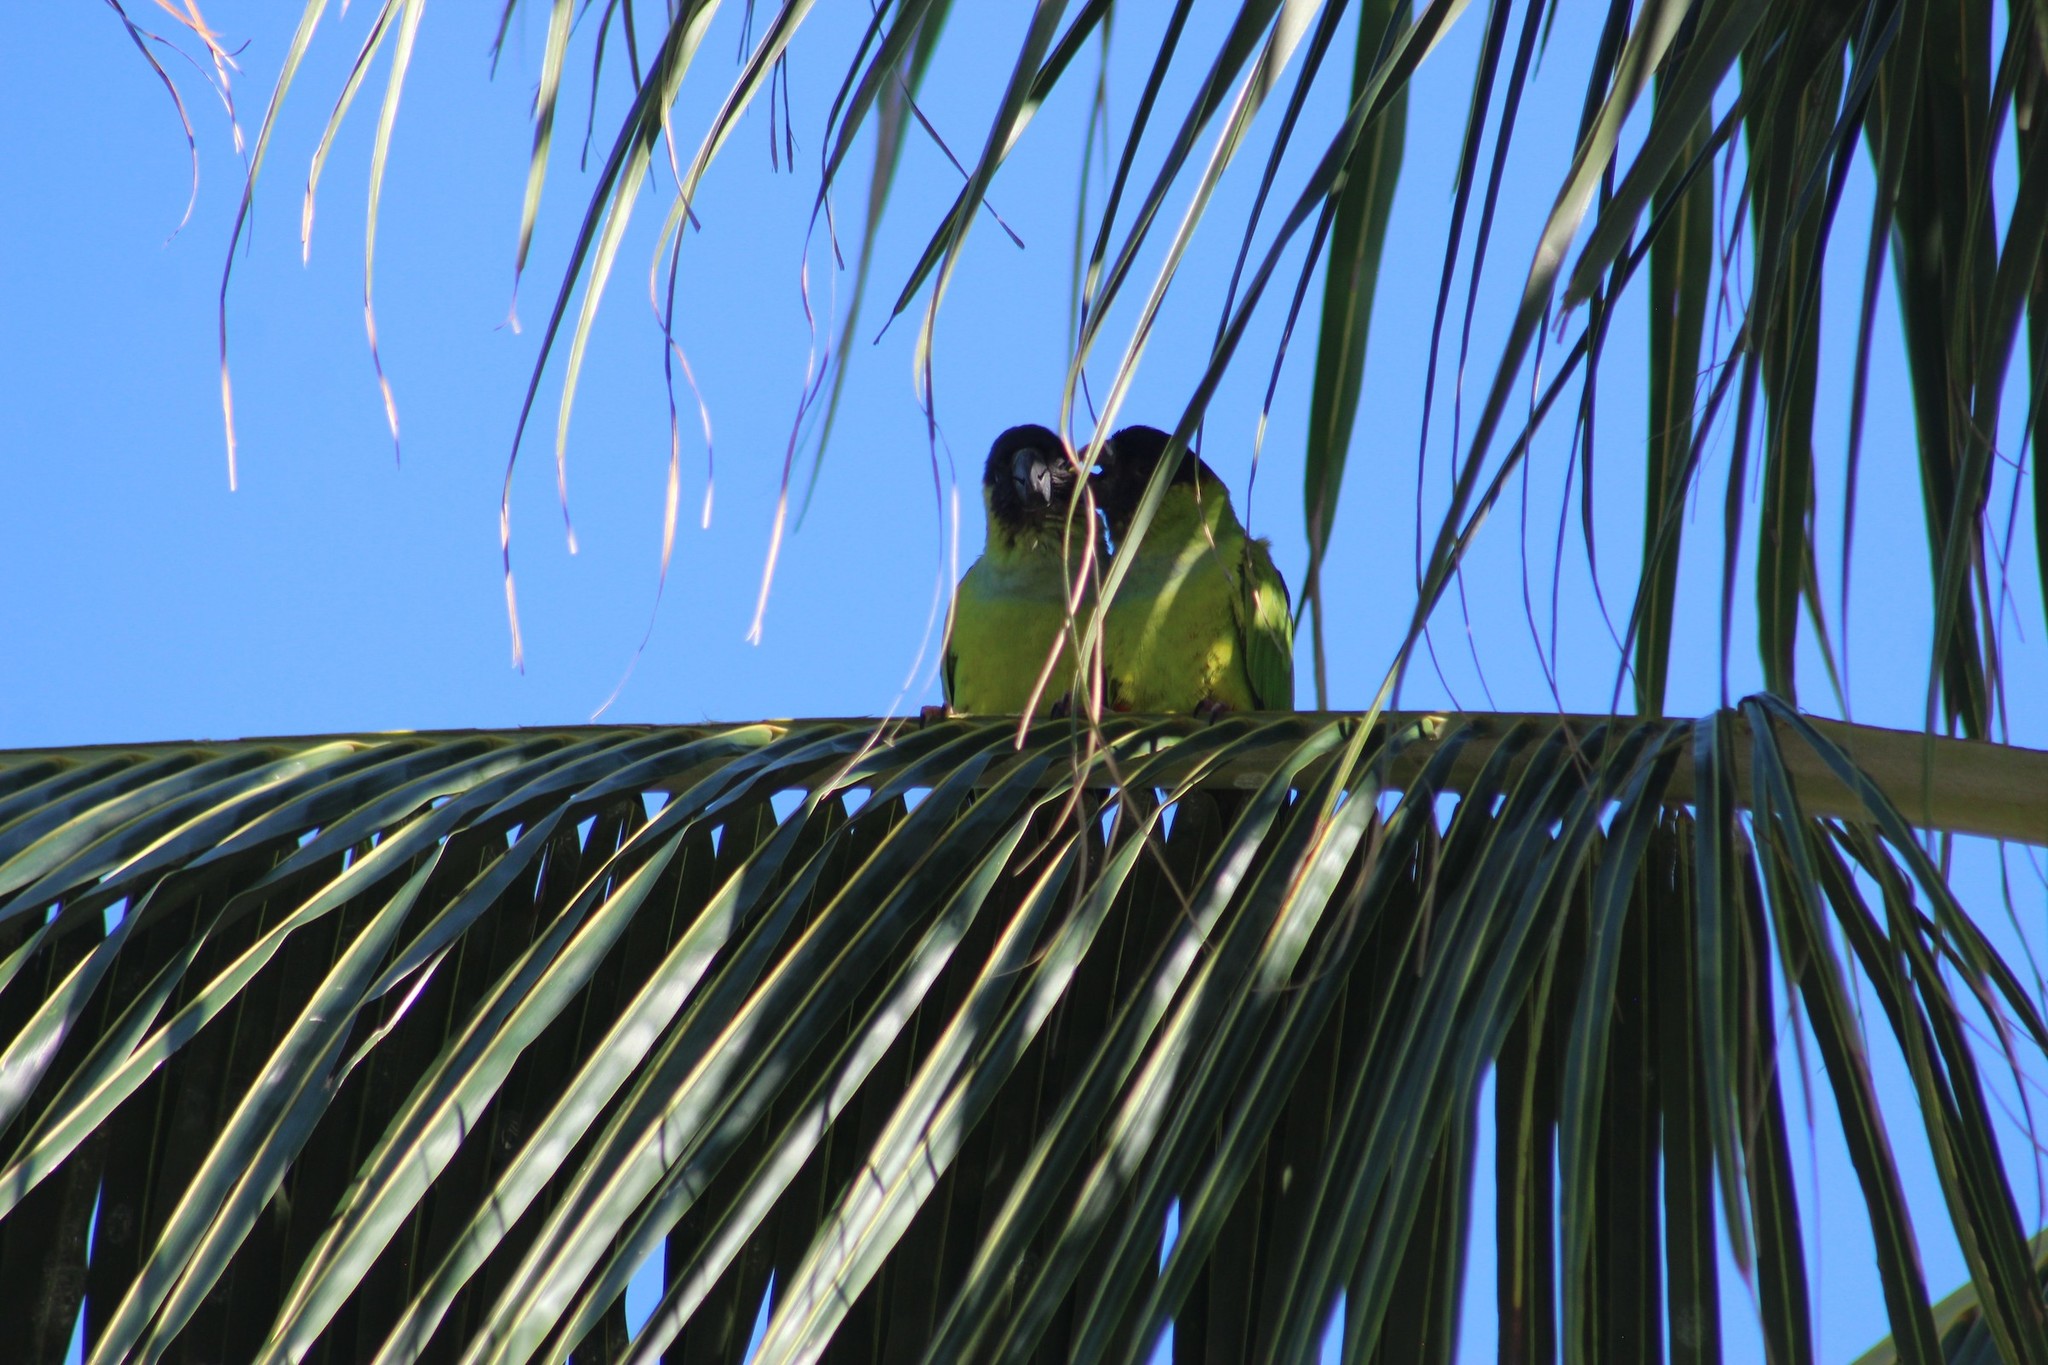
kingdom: Animalia
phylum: Chordata
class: Aves
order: Psittaciformes
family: Psittacidae
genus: Nandayus
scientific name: Nandayus nenday
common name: Nanday parakeet
